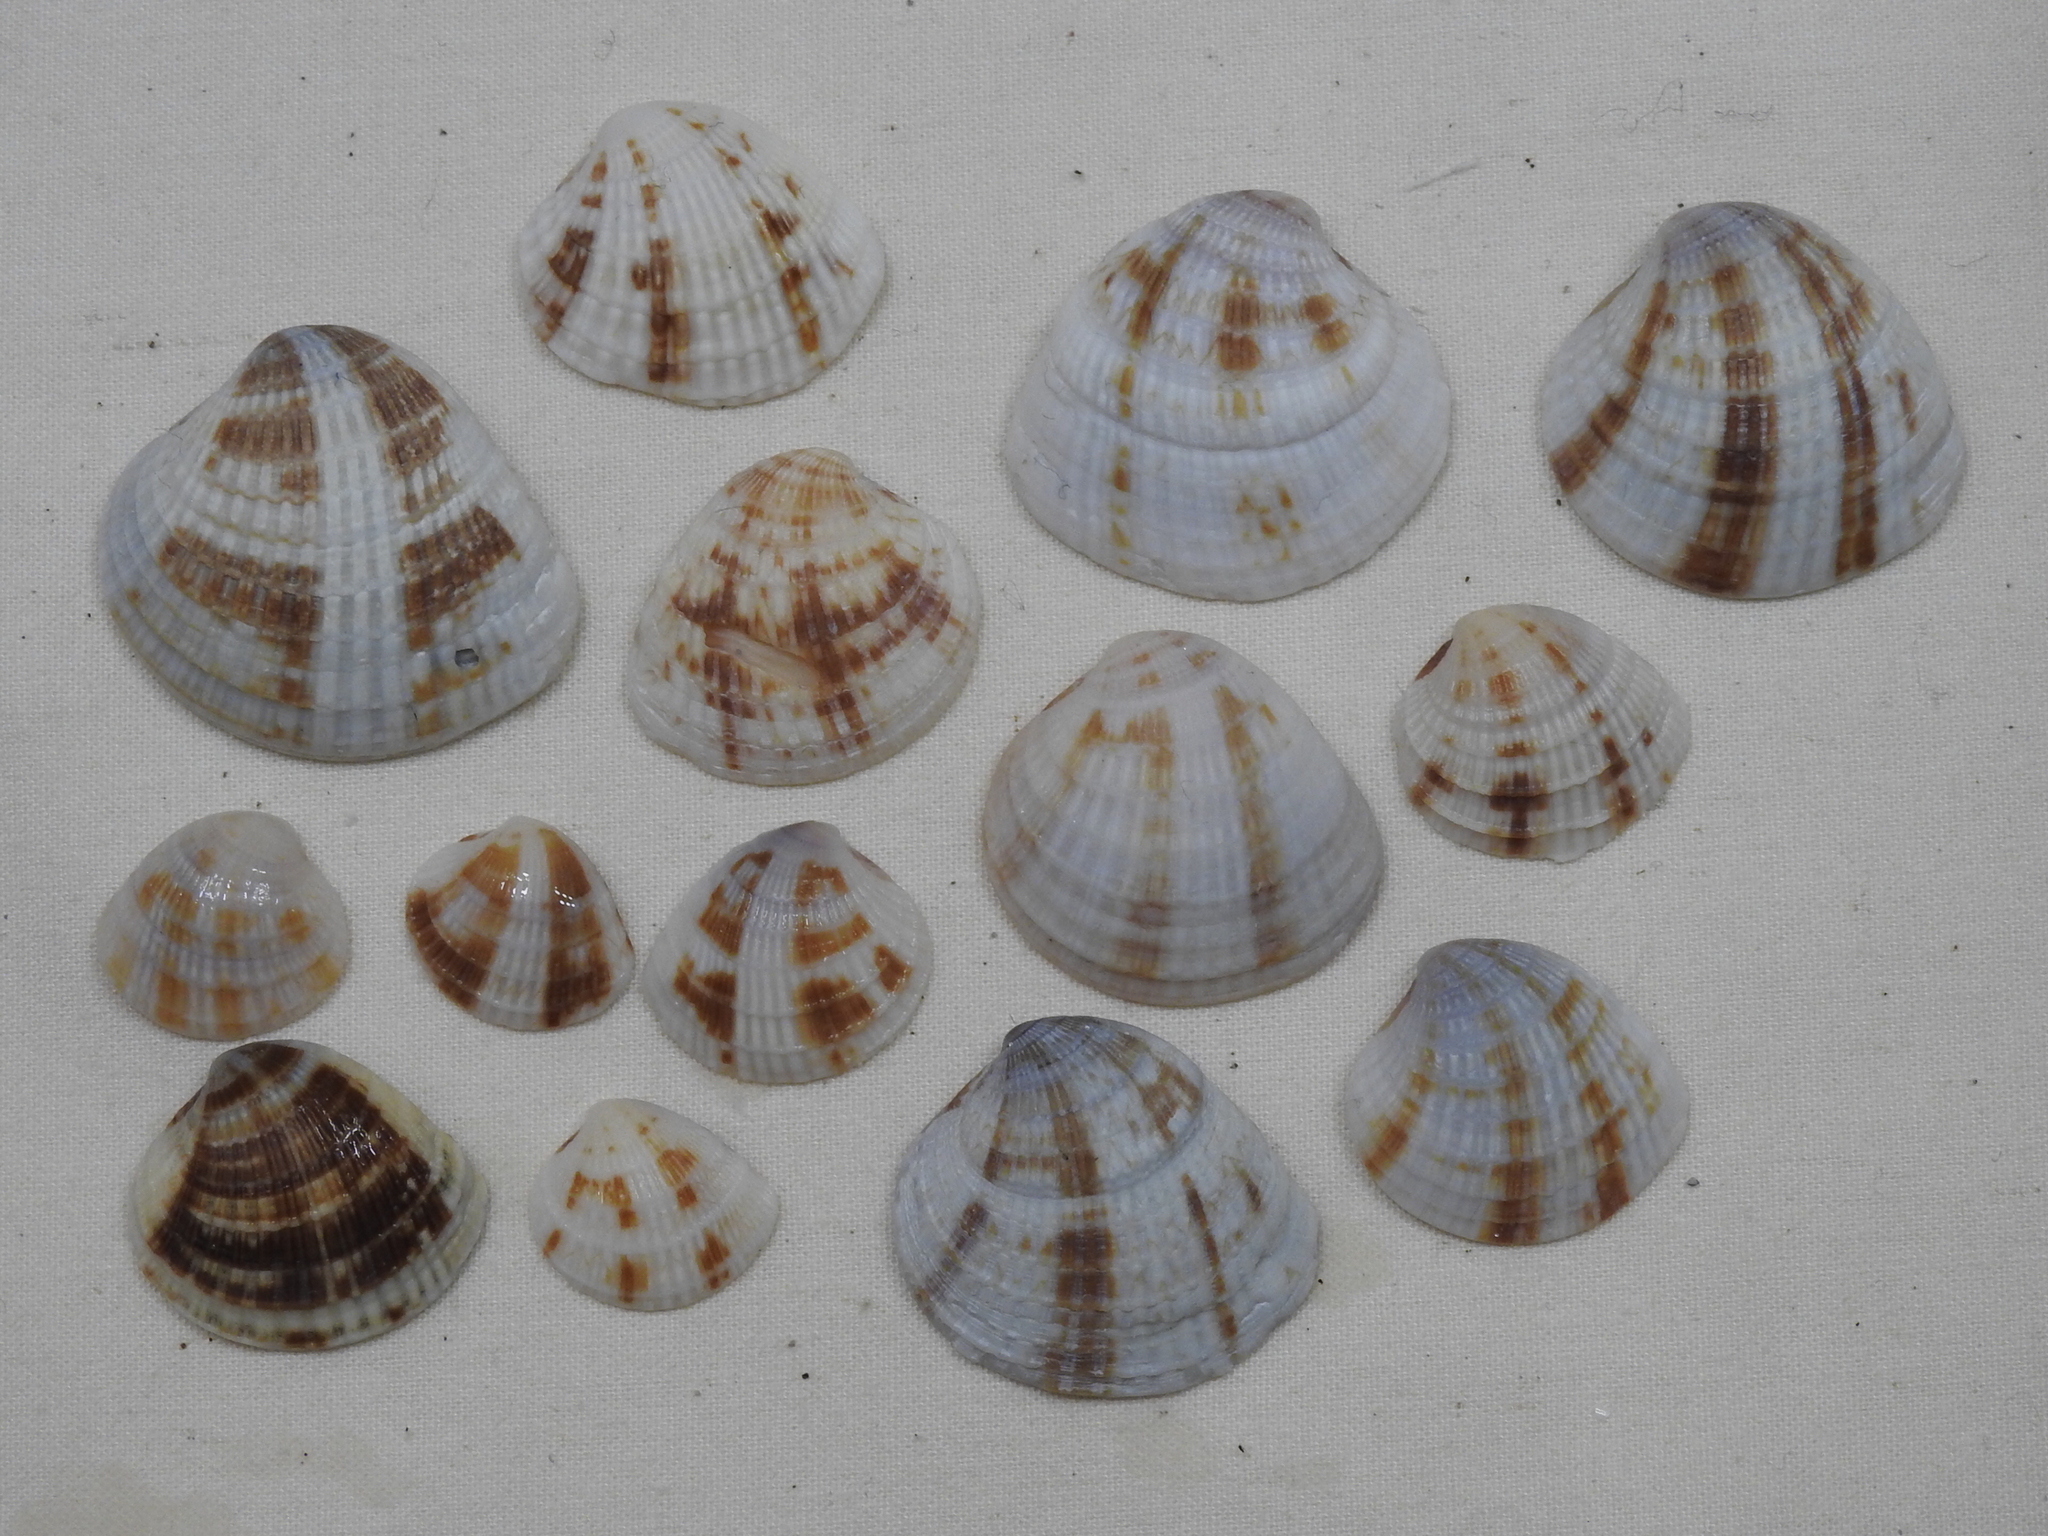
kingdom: Animalia
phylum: Mollusca
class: Bivalvia
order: Venerida
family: Veneridae
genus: Chione
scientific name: Chione elevata
